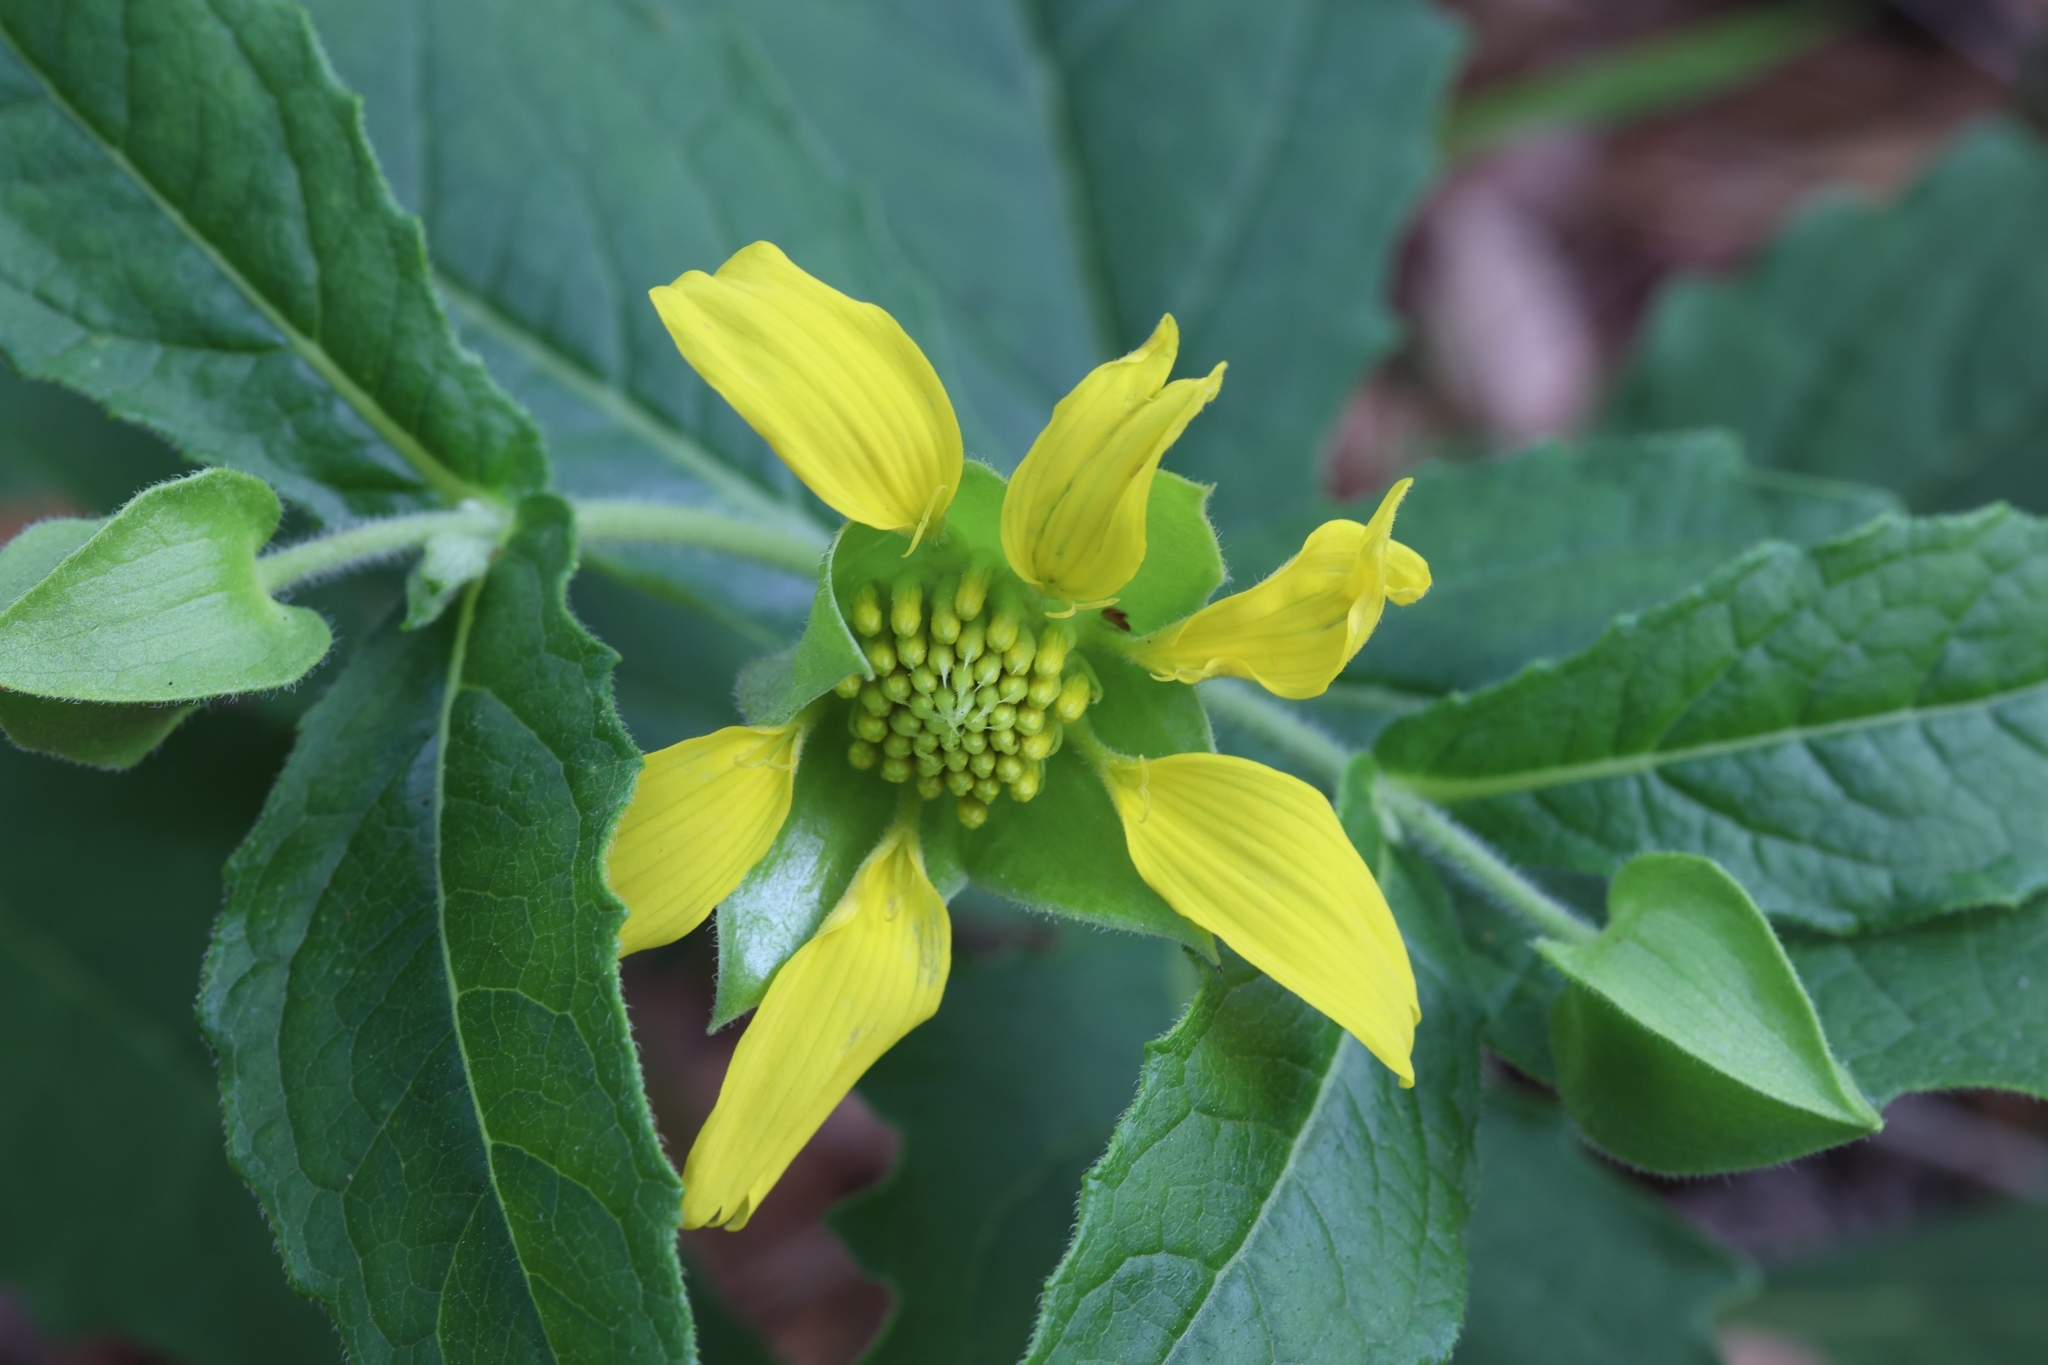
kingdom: Plantae
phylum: Tracheophyta
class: Magnoliopsida
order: Asterales
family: Asteraceae
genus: Tetragonotheca
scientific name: Tetragonotheca helianthoides
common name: Pineland-ginseng
